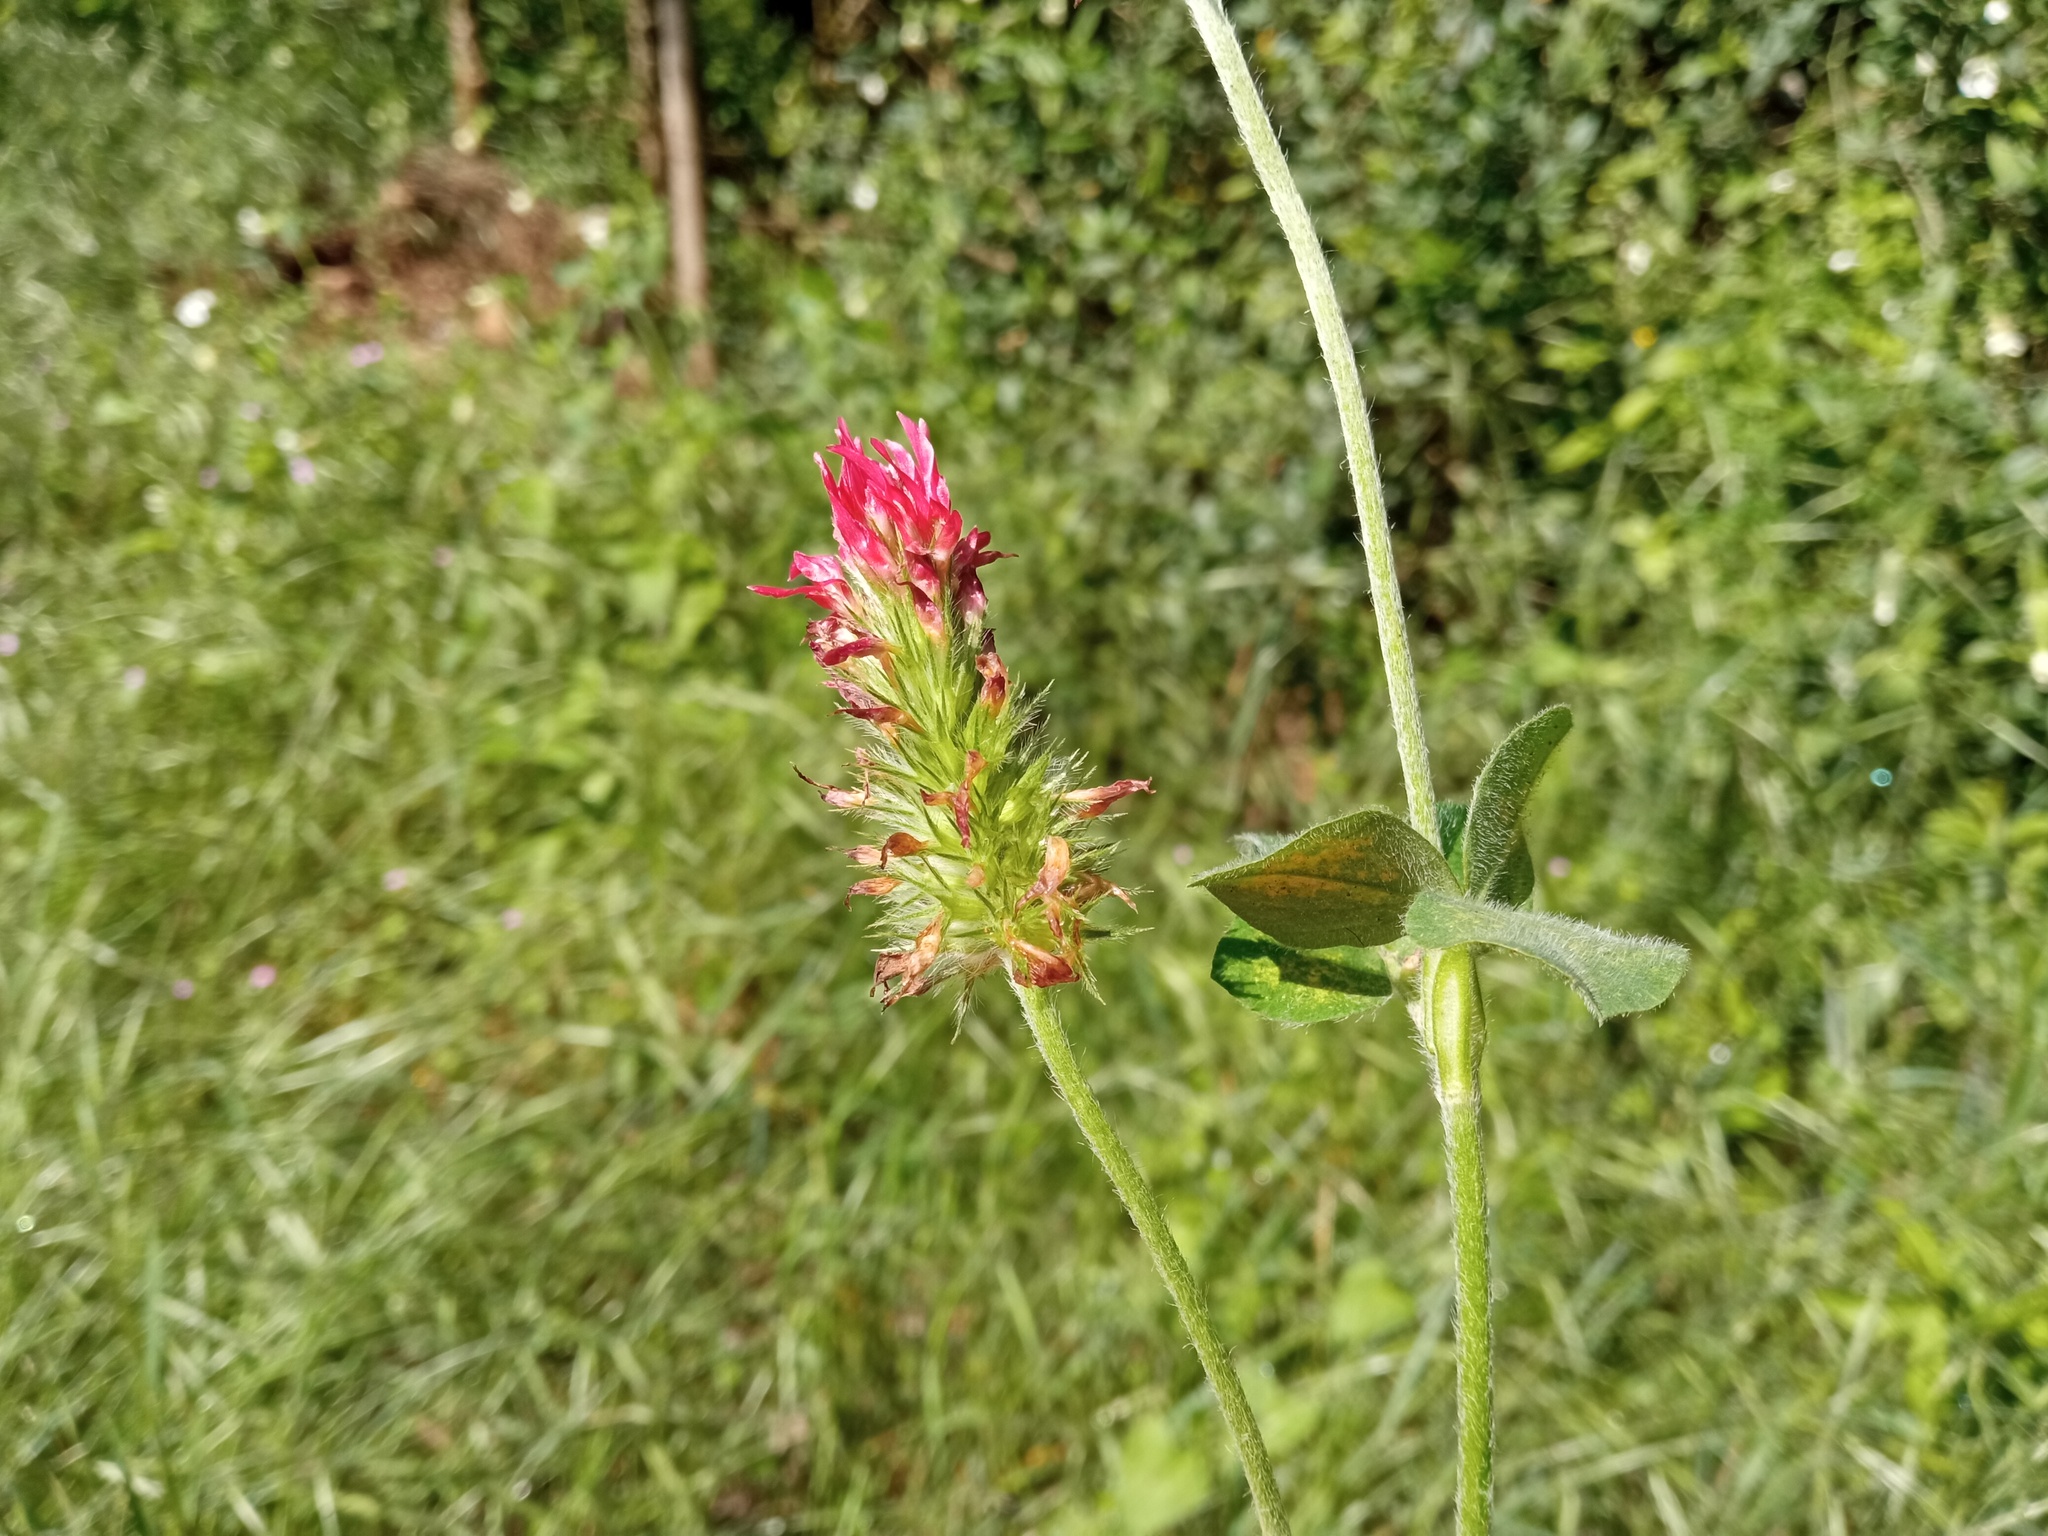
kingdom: Plantae
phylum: Tracheophyta
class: Magnoliopsida
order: Fabales
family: Fabaceae
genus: Trifolium
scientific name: Trifolium incarnatum
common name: Crimson clover
